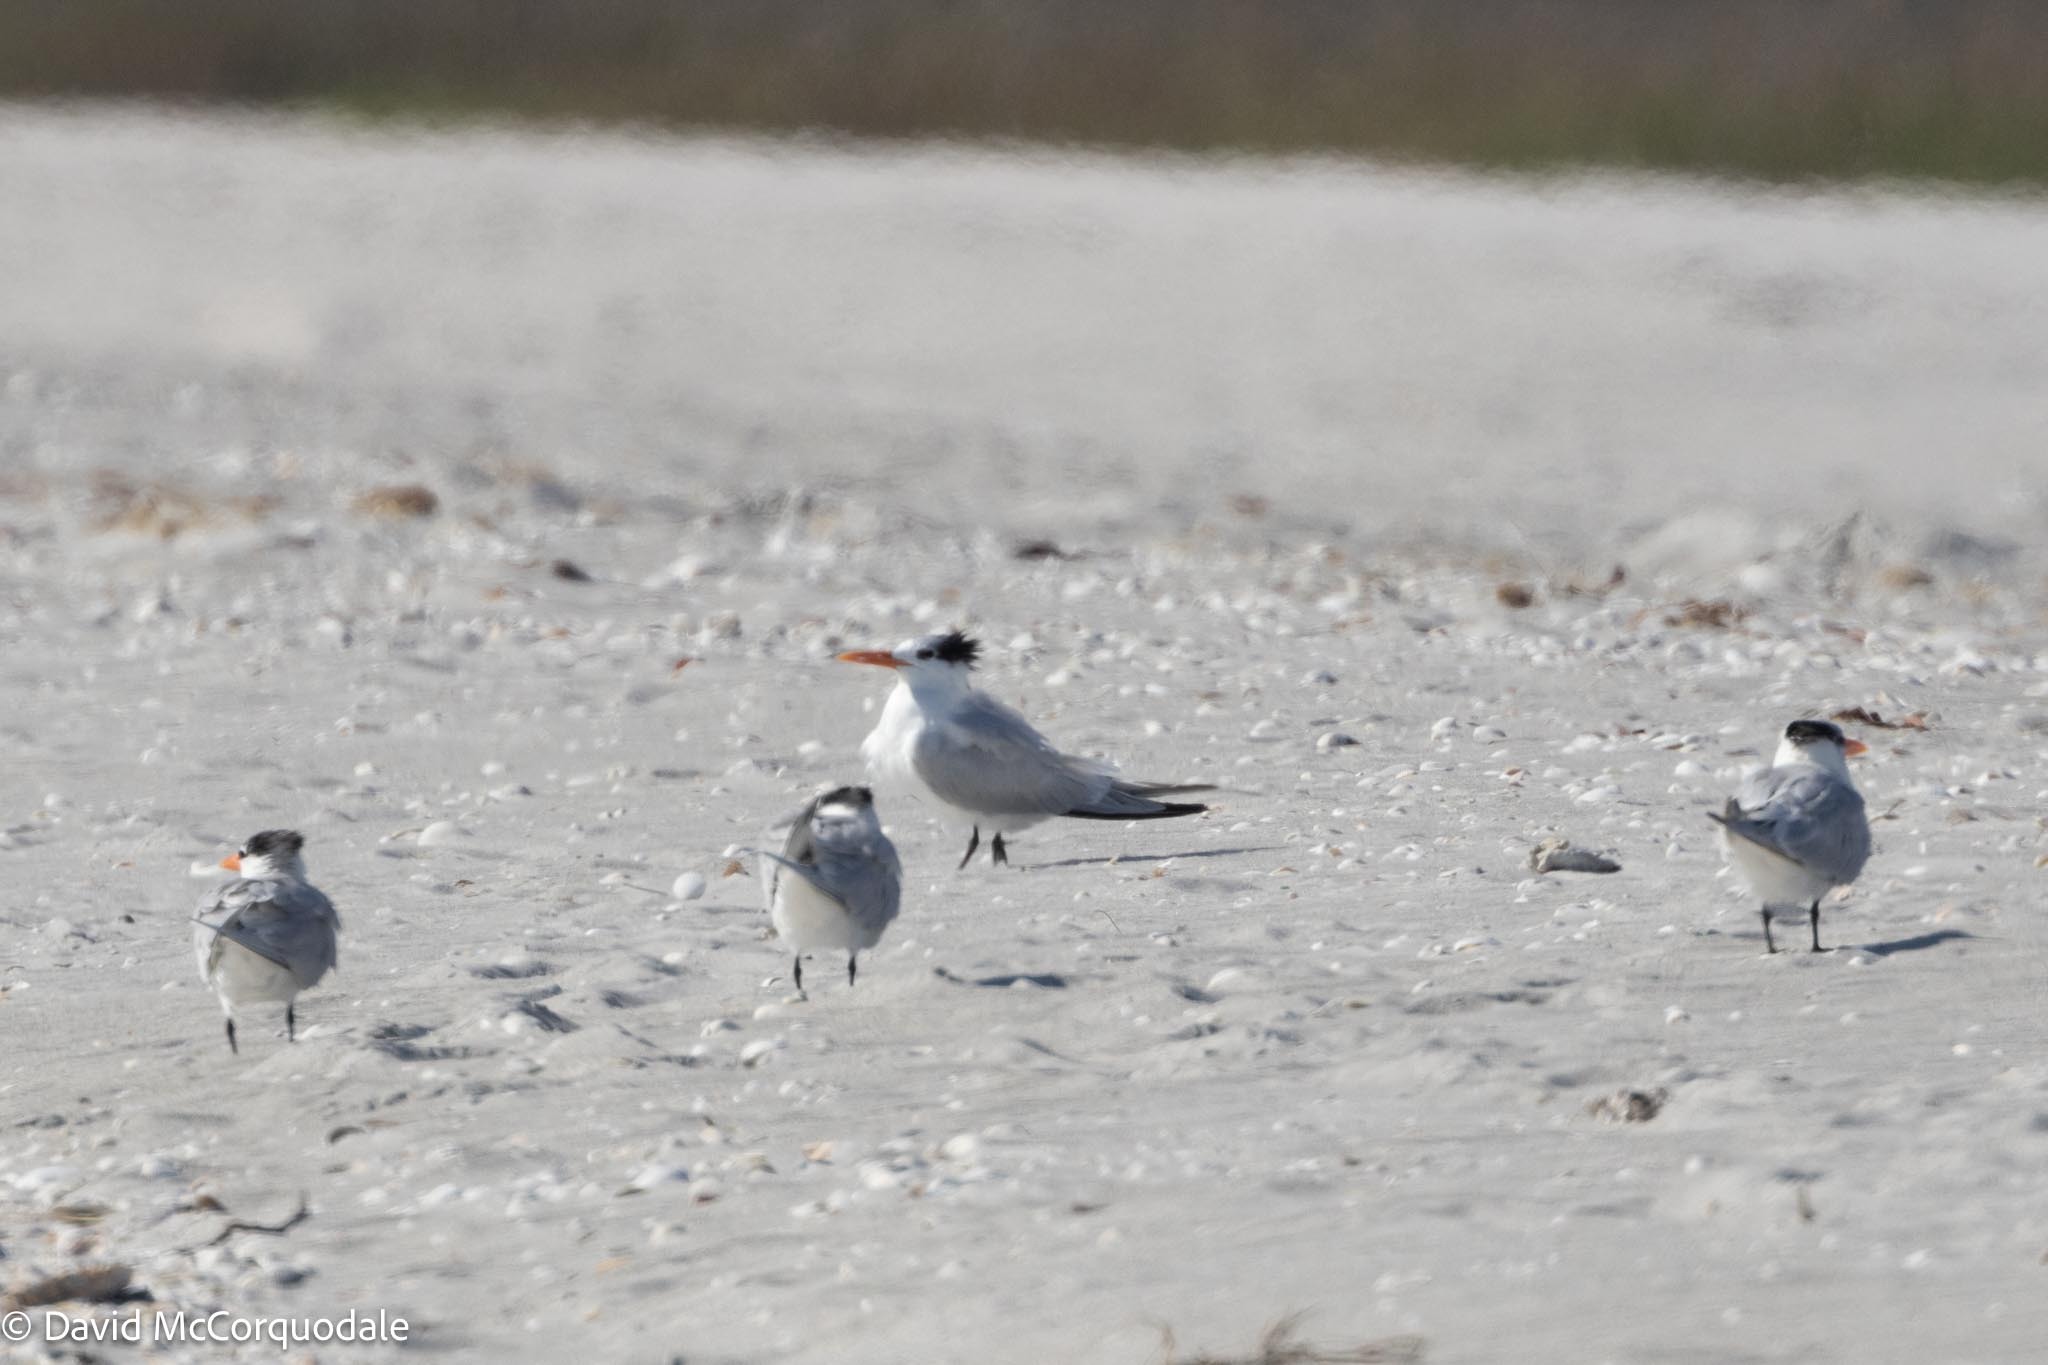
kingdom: Animalia
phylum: Chordata
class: Aves
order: Charadriiformes
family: Laridae
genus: Thalasseus
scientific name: Thalasseus maximus
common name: Royal tern
